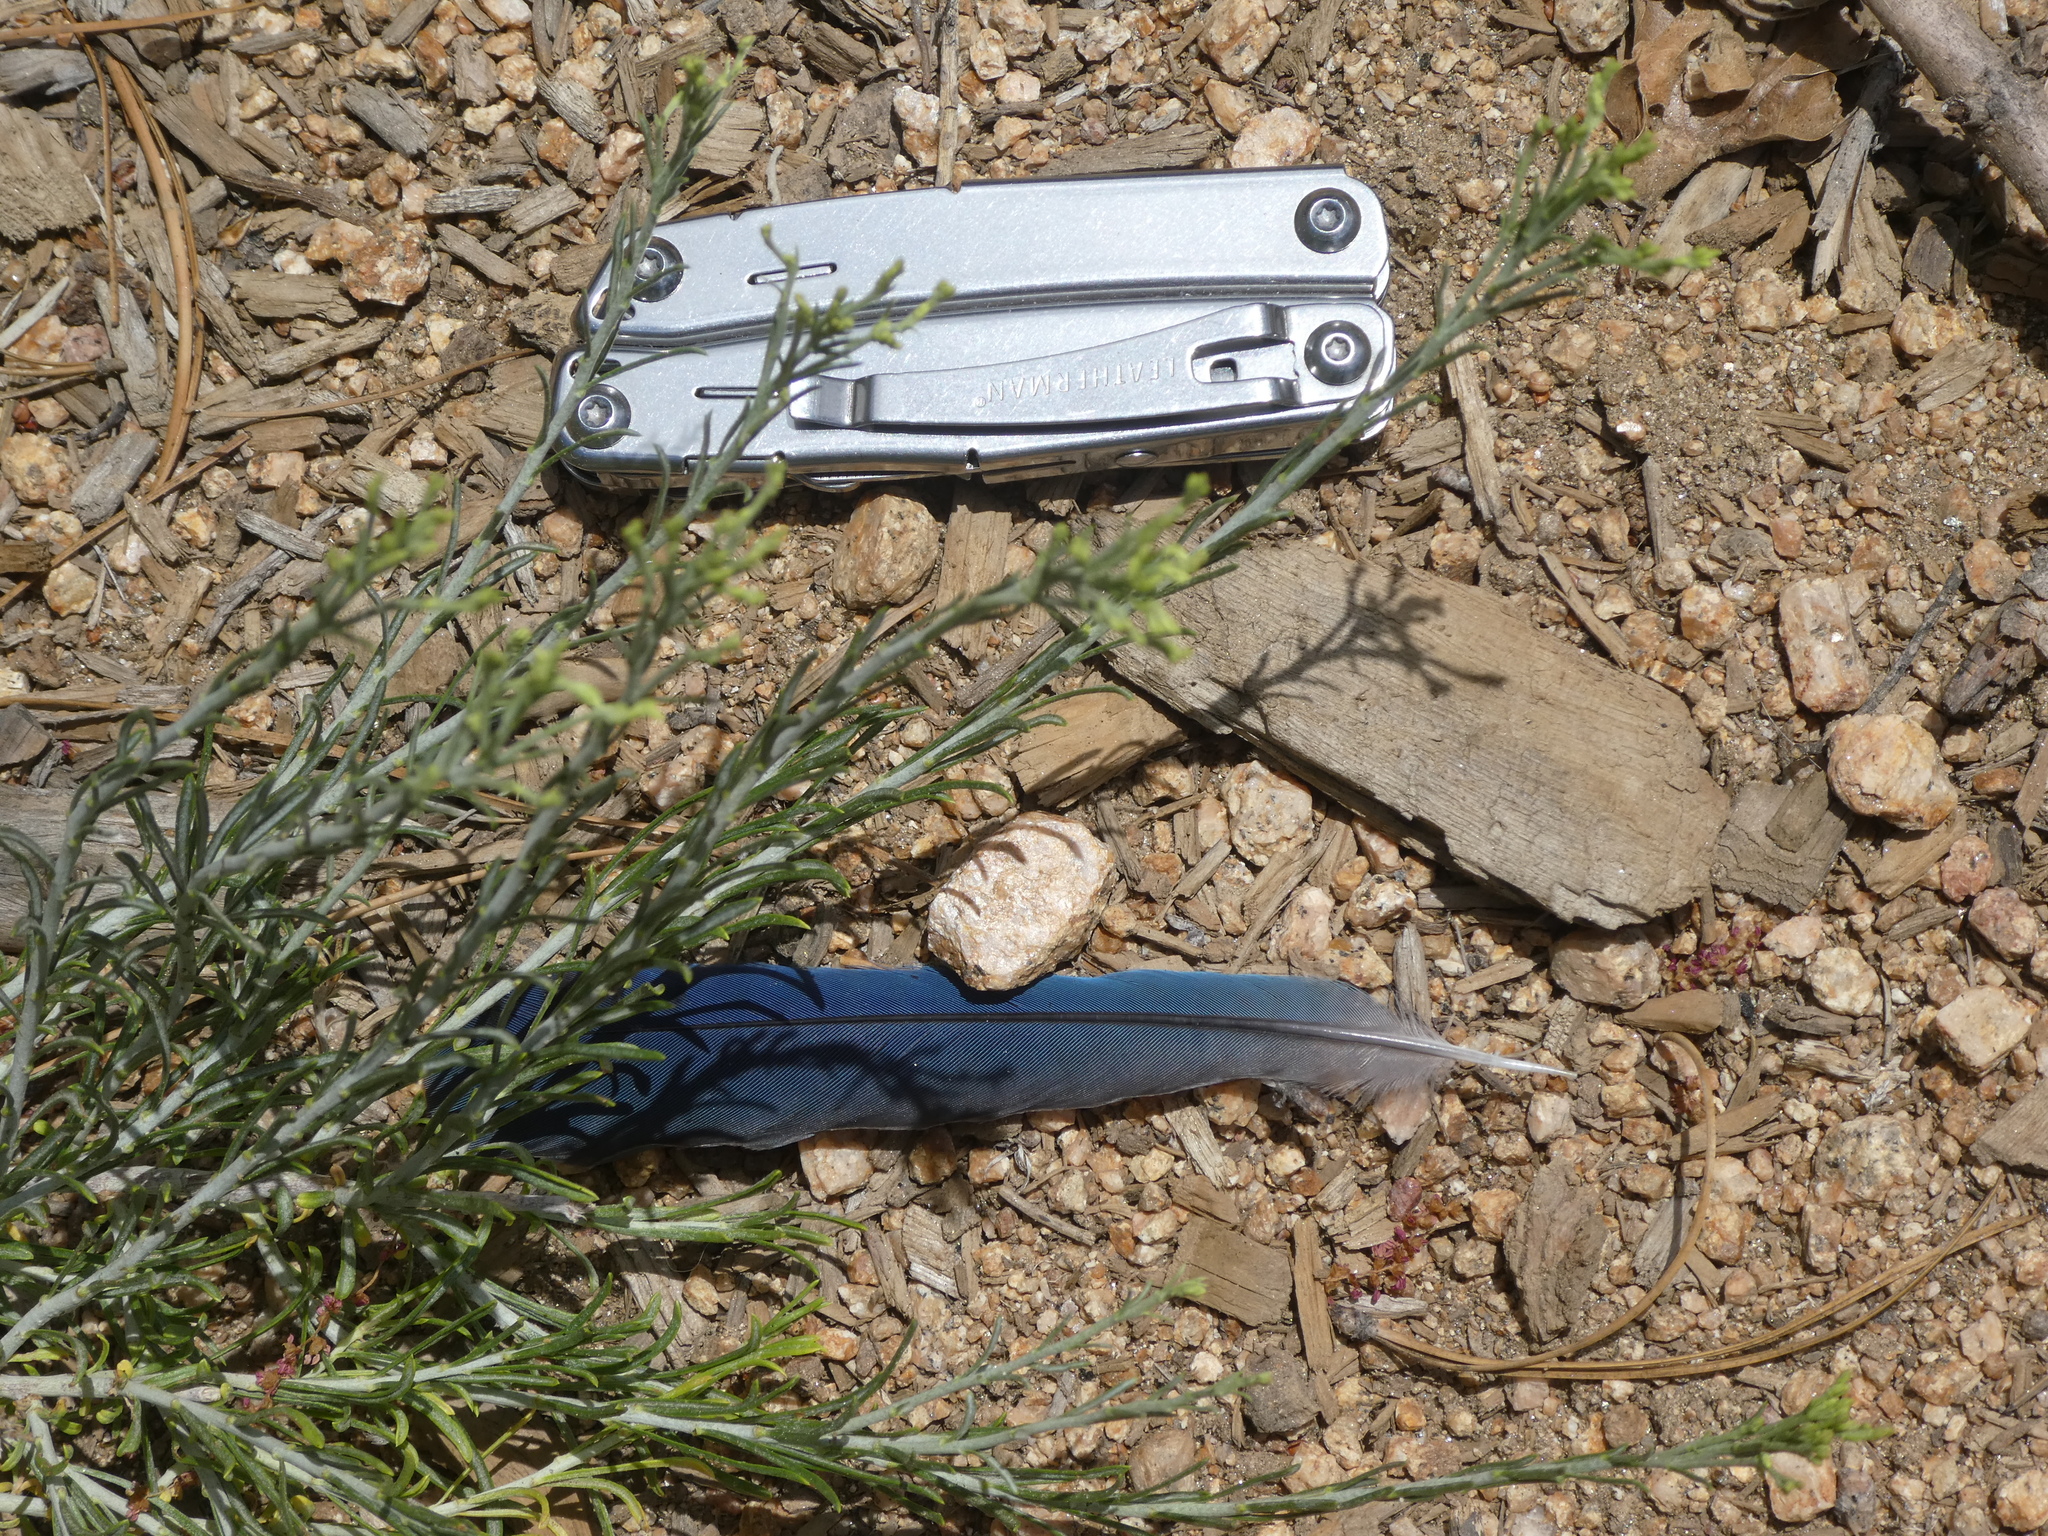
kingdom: Animalia
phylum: Chordata
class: Aves
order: Passeriformes
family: Corvidae
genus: Cyanocitta
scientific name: Cyanocitta stelleri
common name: Steller's jay
